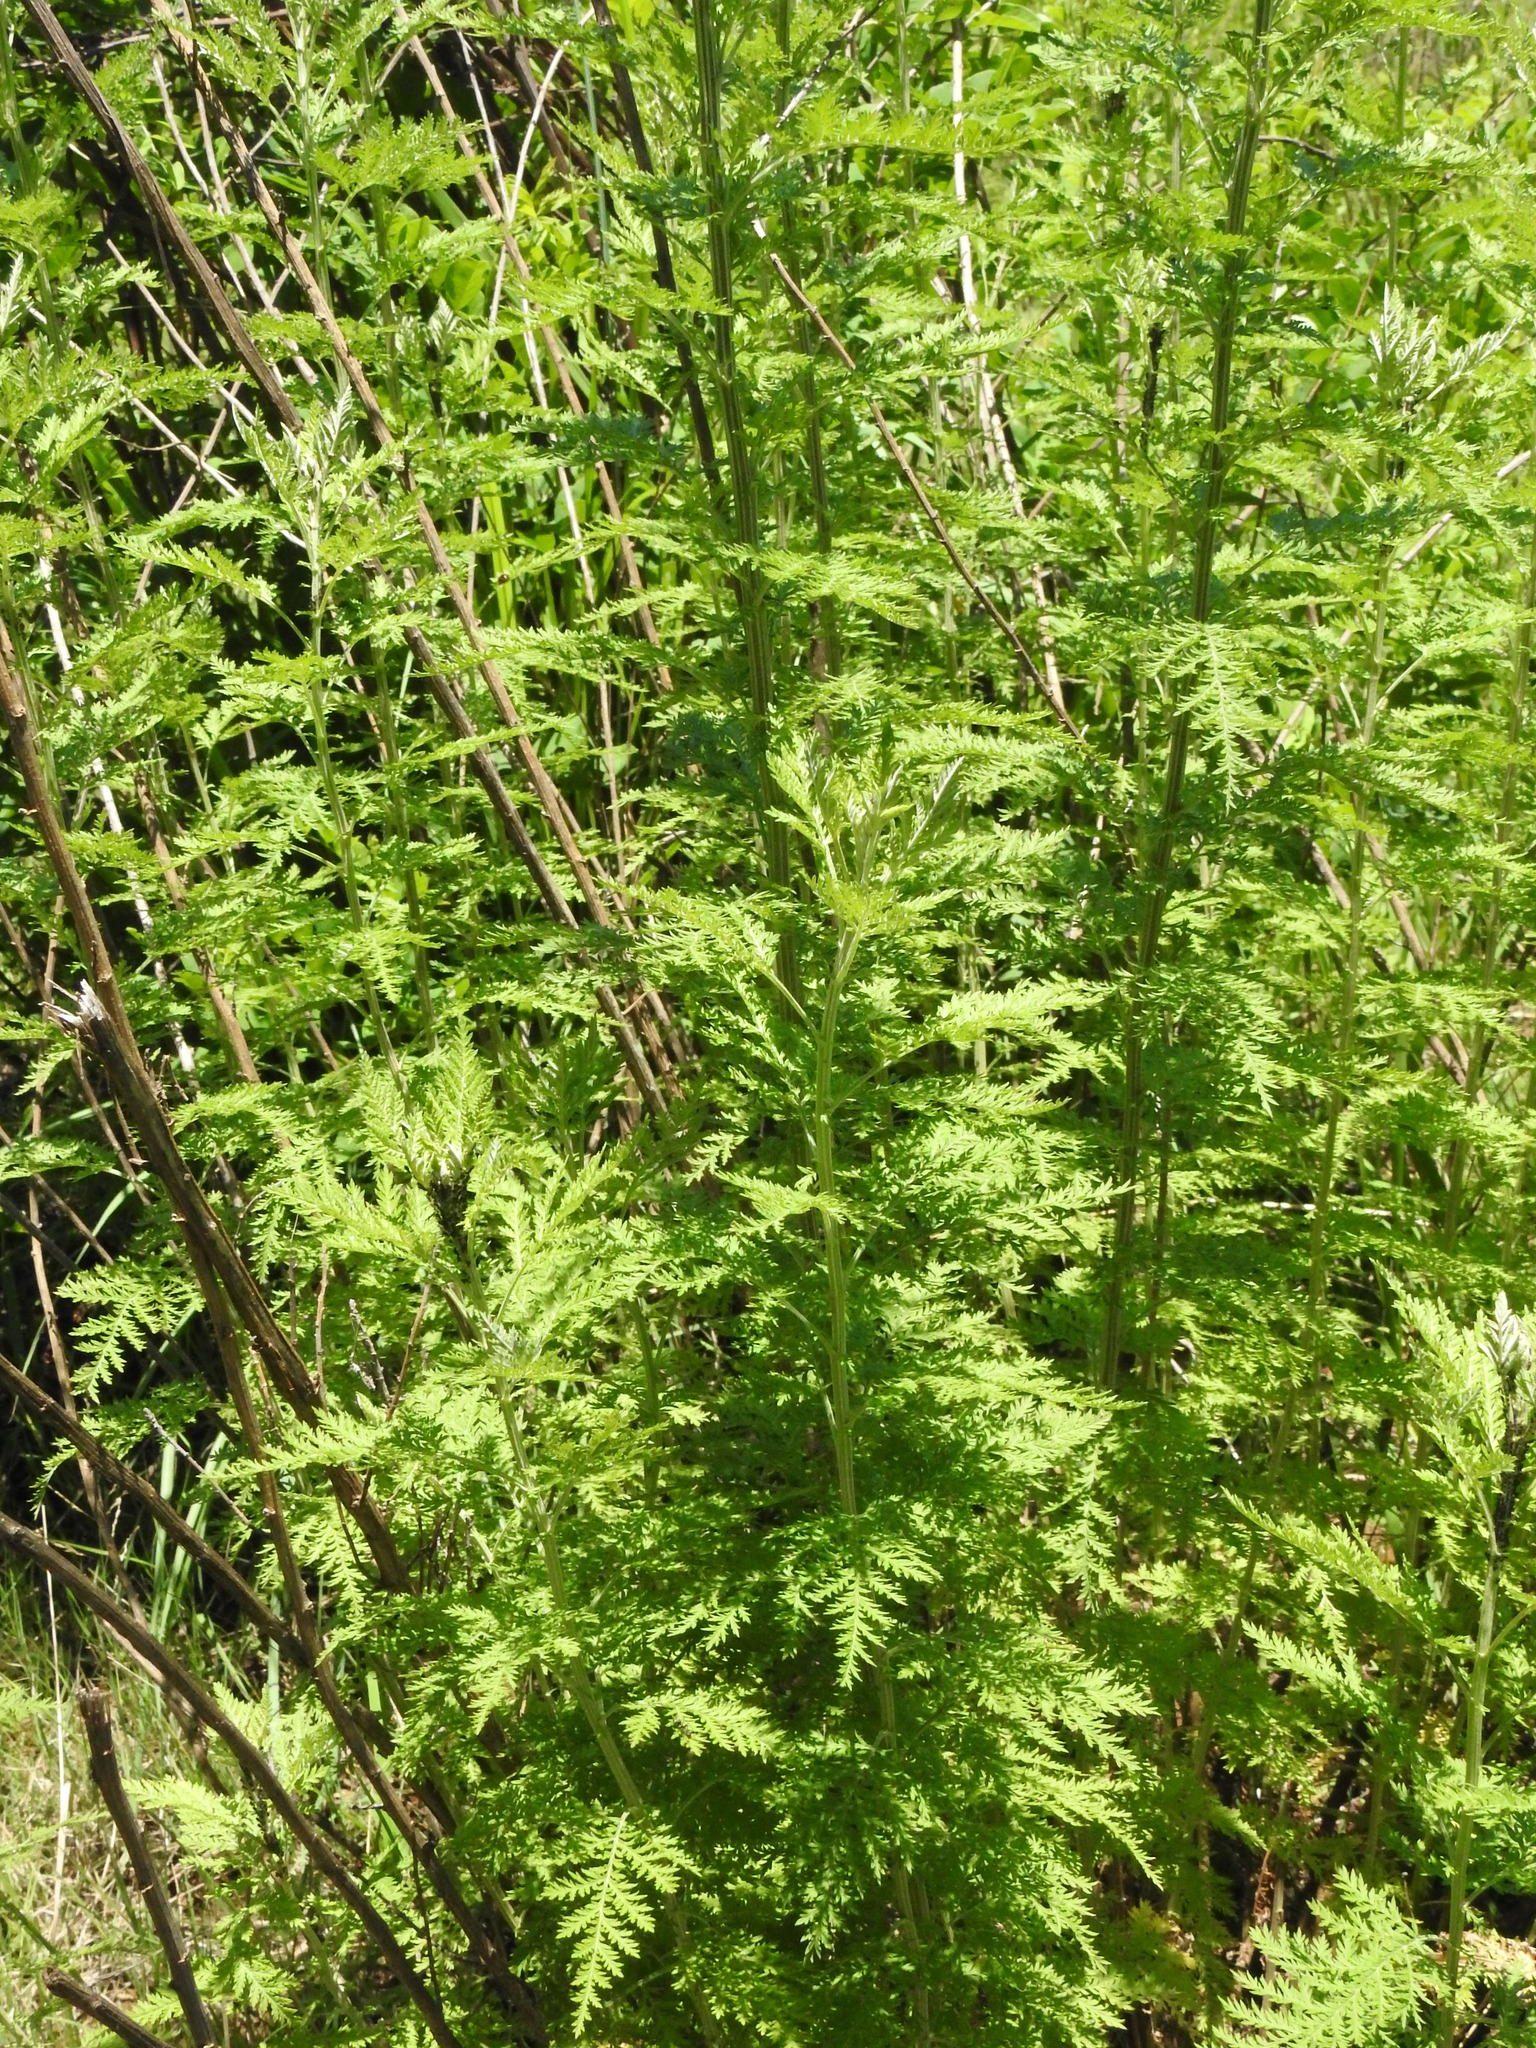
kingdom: Plantae
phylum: Tracheophyta
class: Magnoliopsida
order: Asterales
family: Asteraceae
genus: Artemisia
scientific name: Artemisia afra
